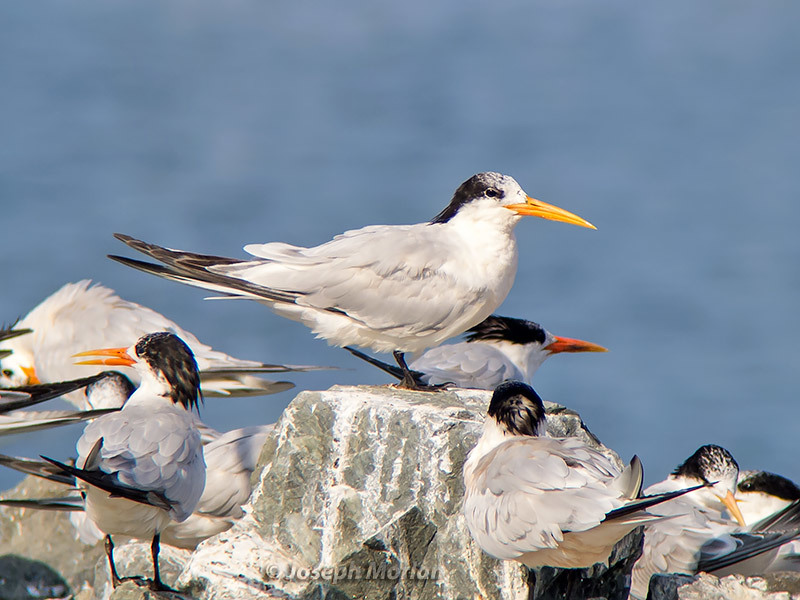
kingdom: Animalia
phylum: Chordata
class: Aves
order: Charadriiformes
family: Laridae
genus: Thalasseus
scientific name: Thalasseus elegans
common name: Elegant tern
